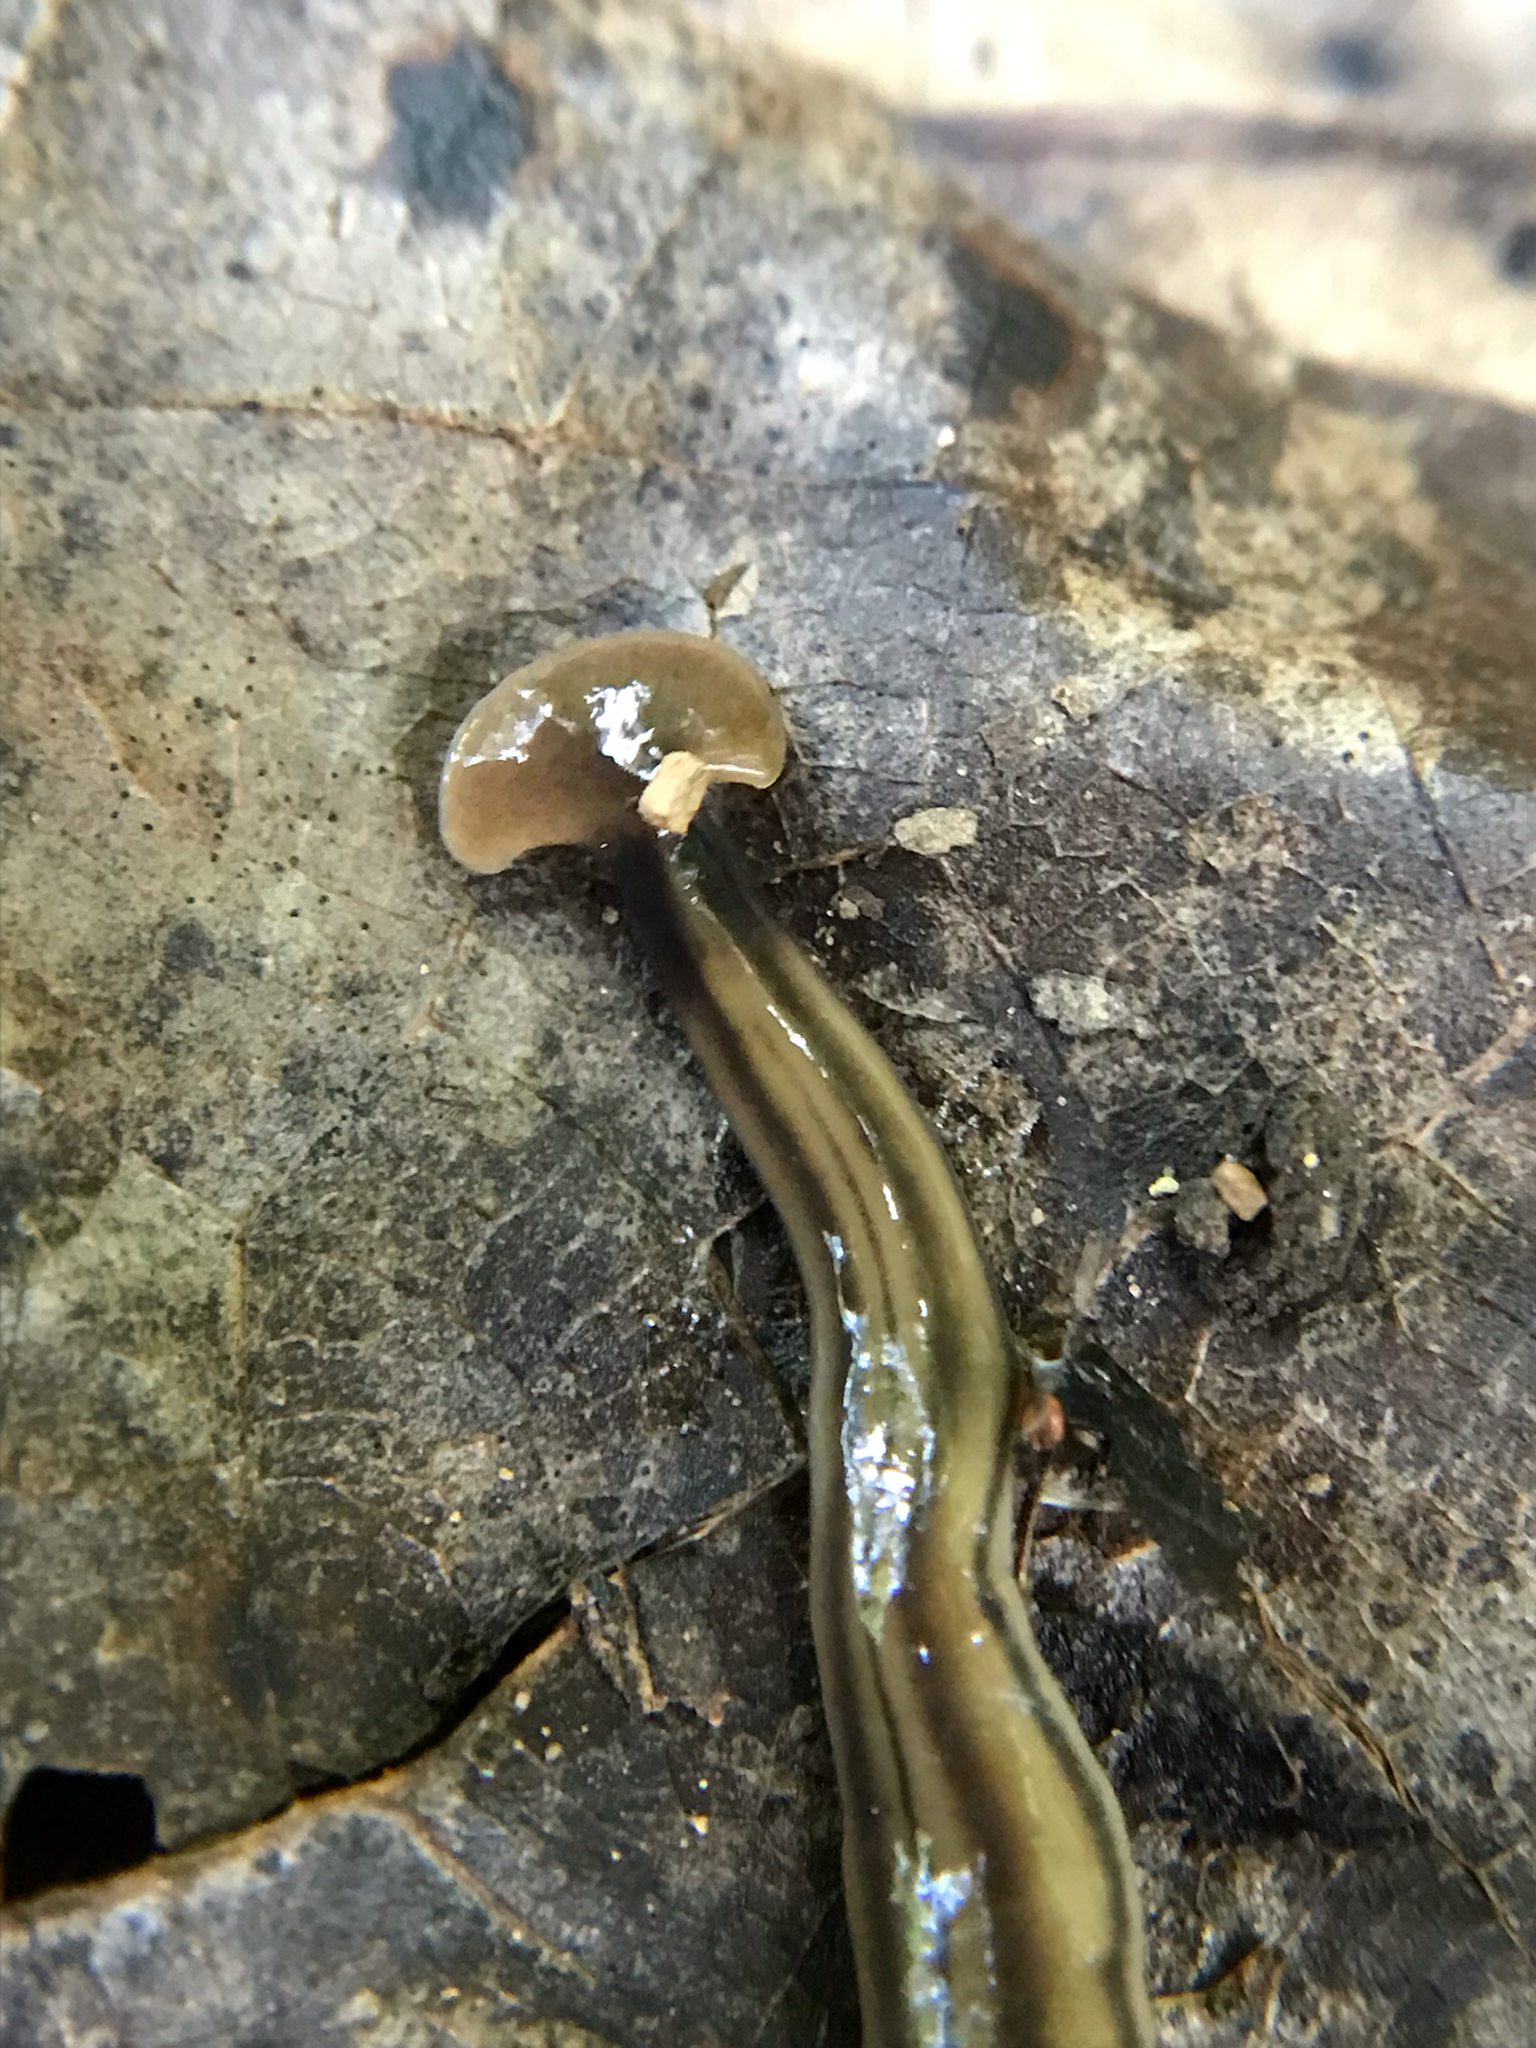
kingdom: Animalia
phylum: Platyhelminthes
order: Tricladida
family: Geoplanidae
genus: Bipalium
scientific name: Bipalium kewense
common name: Hammerhead flatworm
